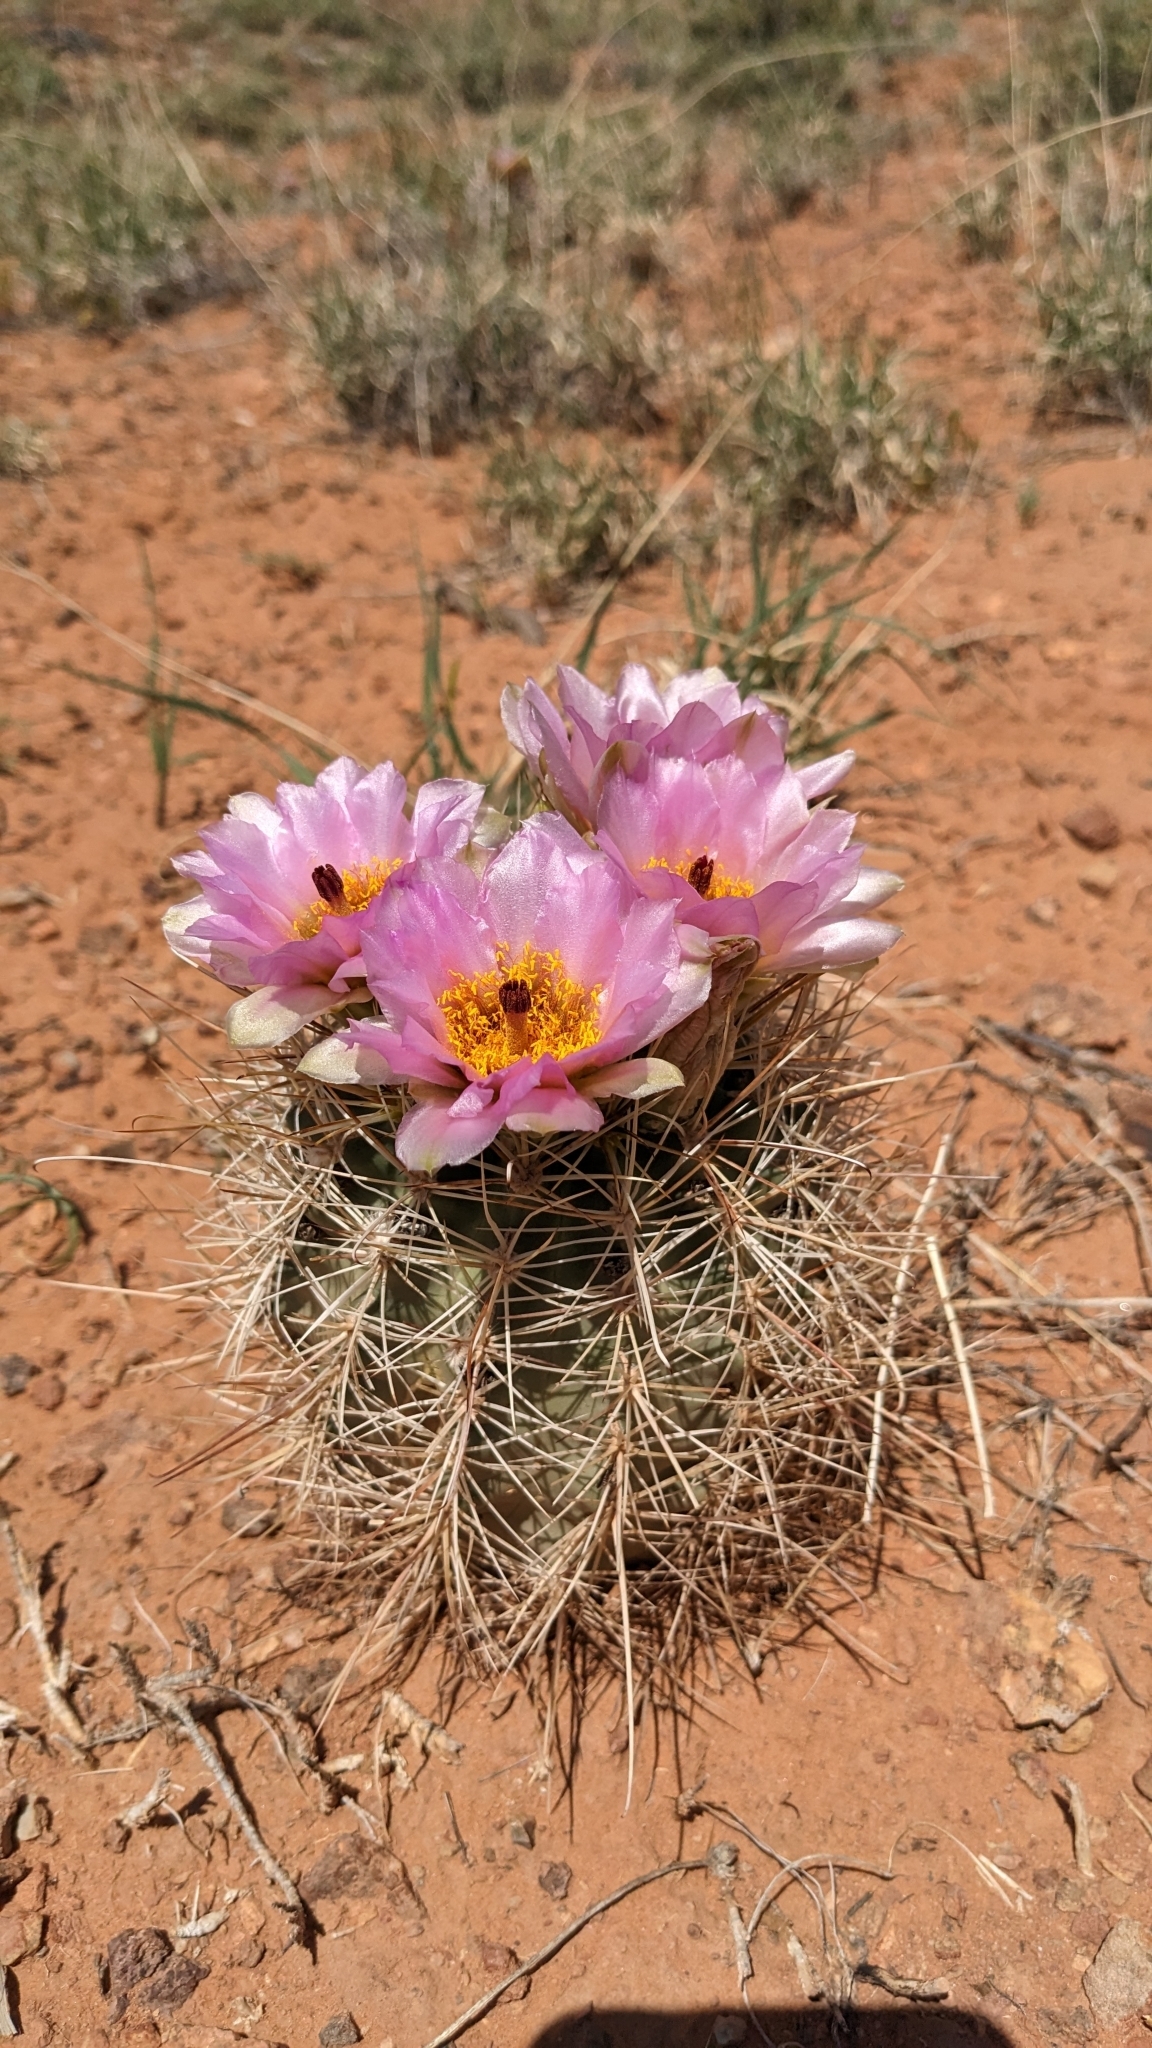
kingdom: Plantae
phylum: Tracheophyta
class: Magnoliopsida
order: Caryophyllales
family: Cactaceae
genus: Sclerocactus
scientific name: Sclerocactus parviflorus
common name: Small-flower fishhook cactus
